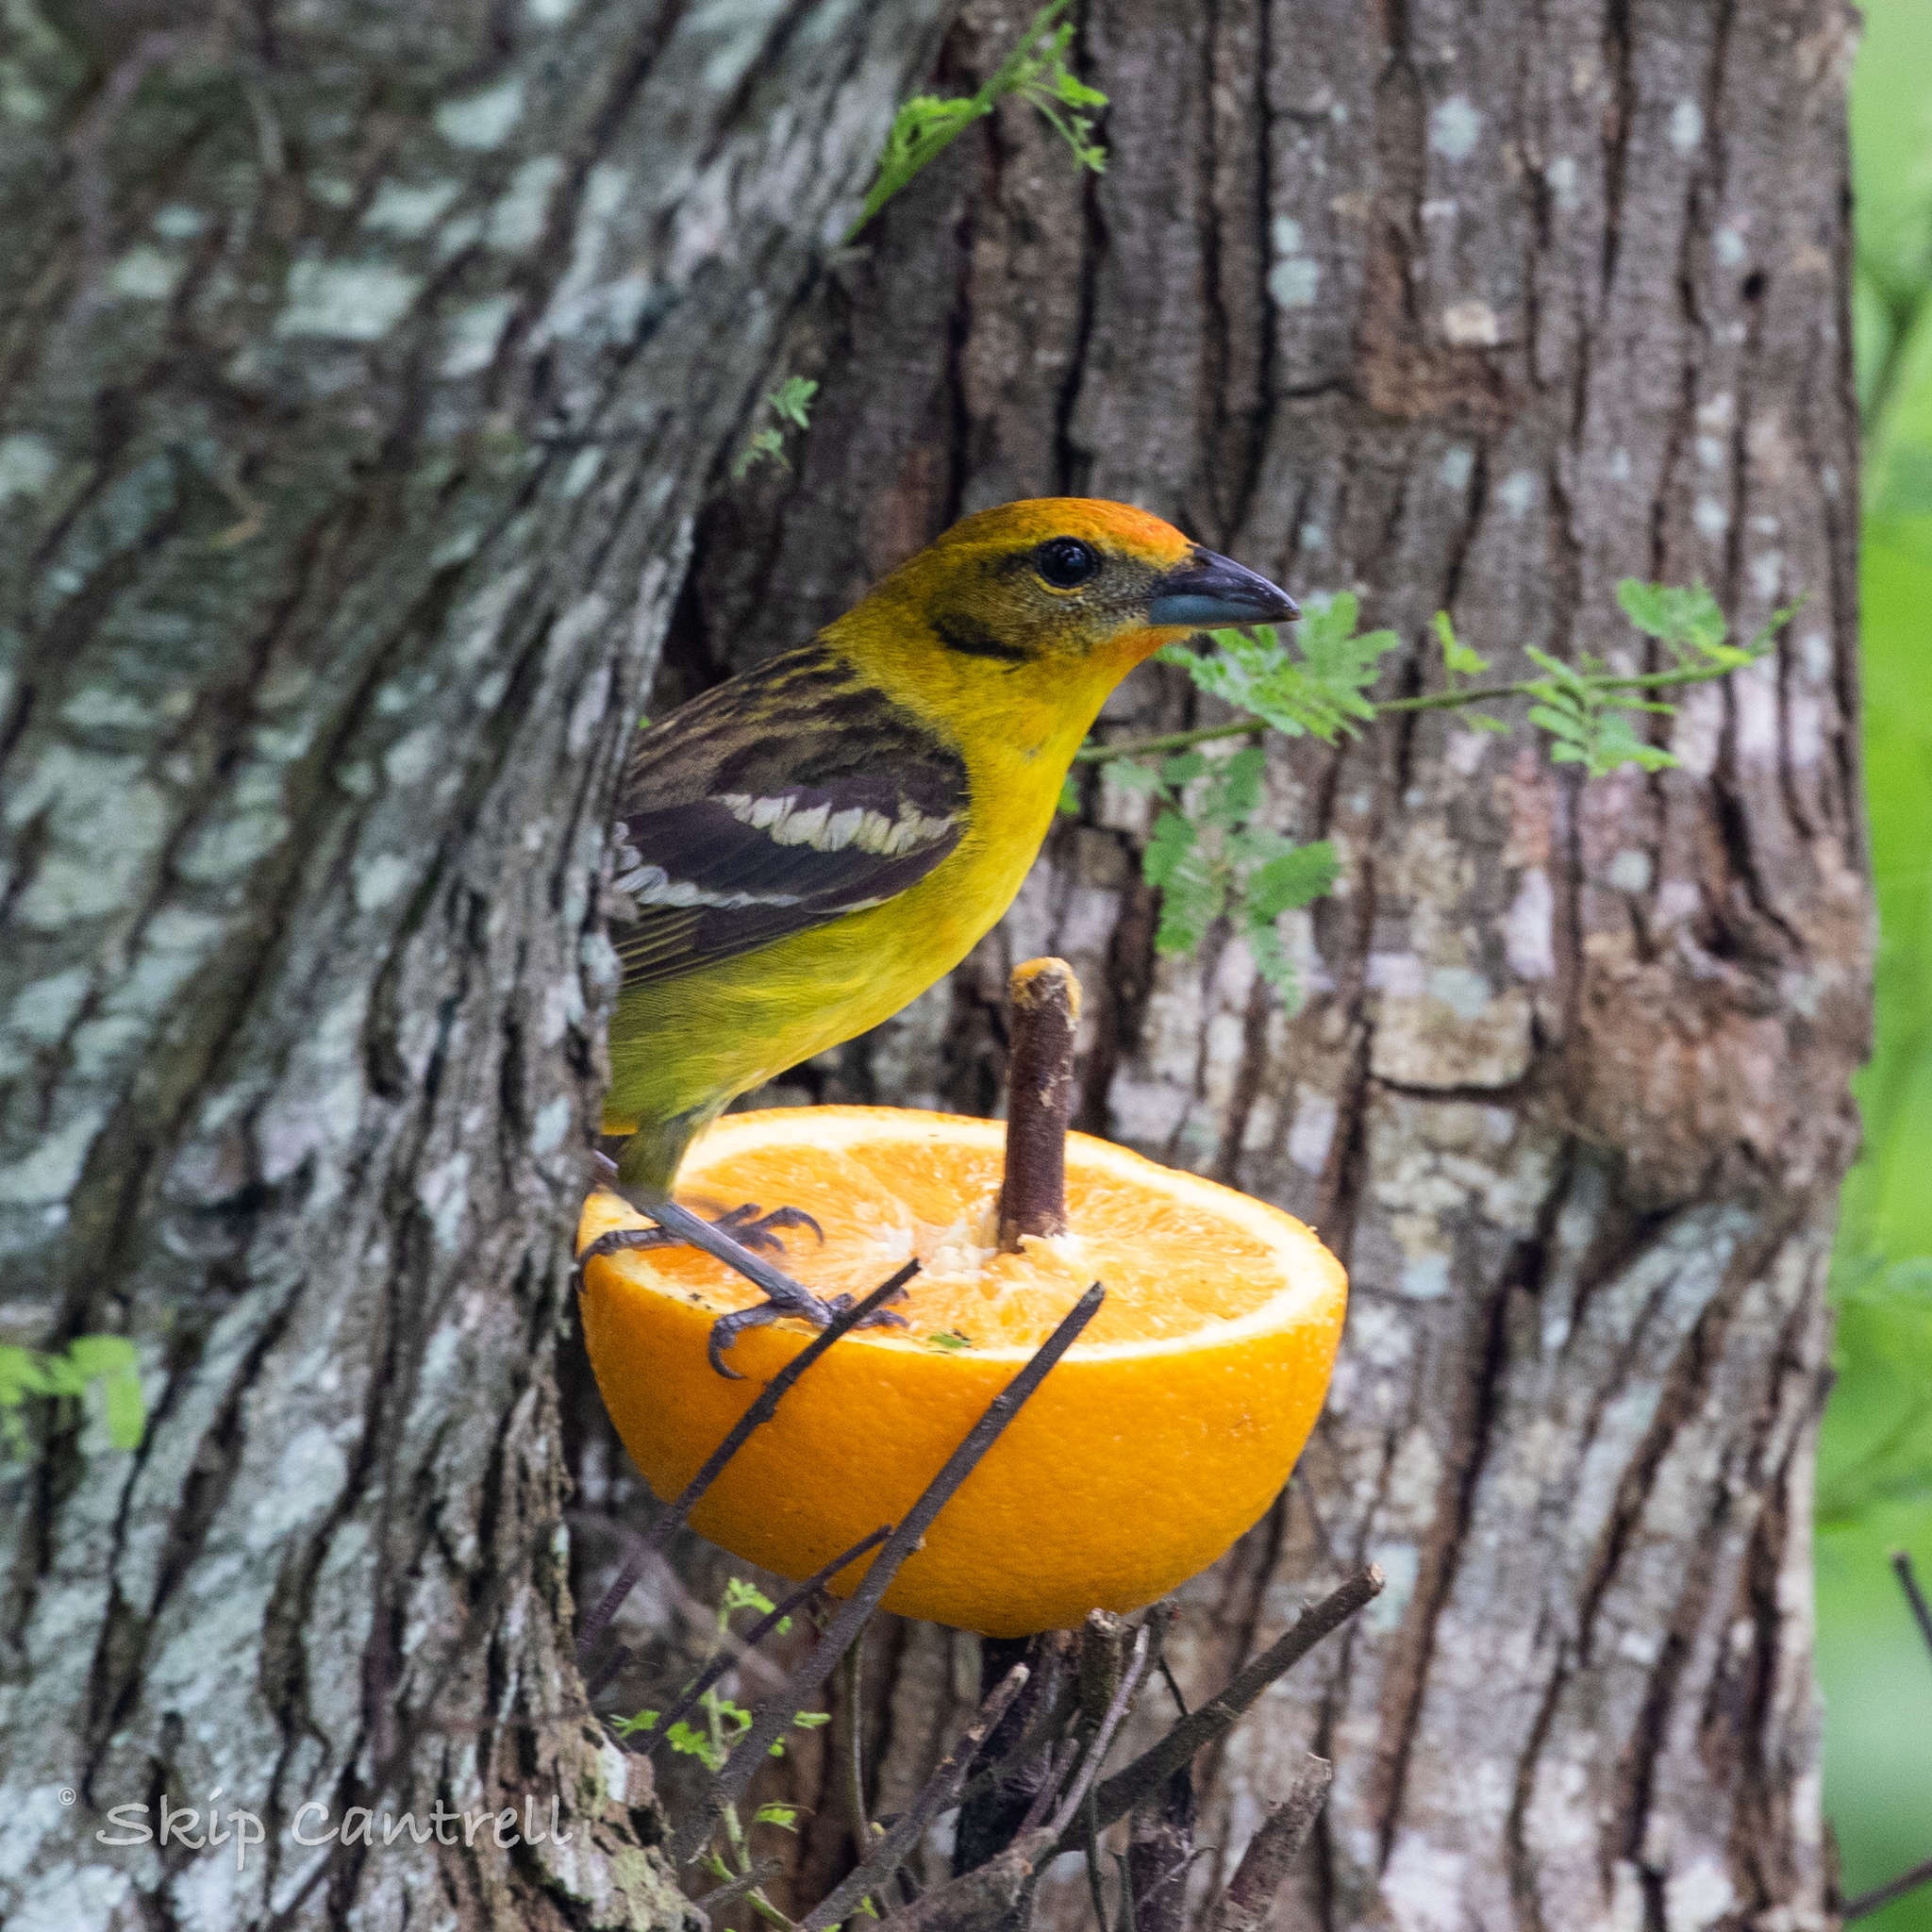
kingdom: Animalia
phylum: Chordata
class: Aves
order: Passeriformes
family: Cardinalidae
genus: Piranga
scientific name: Piranga bidentata
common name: Flame-colored tanager
